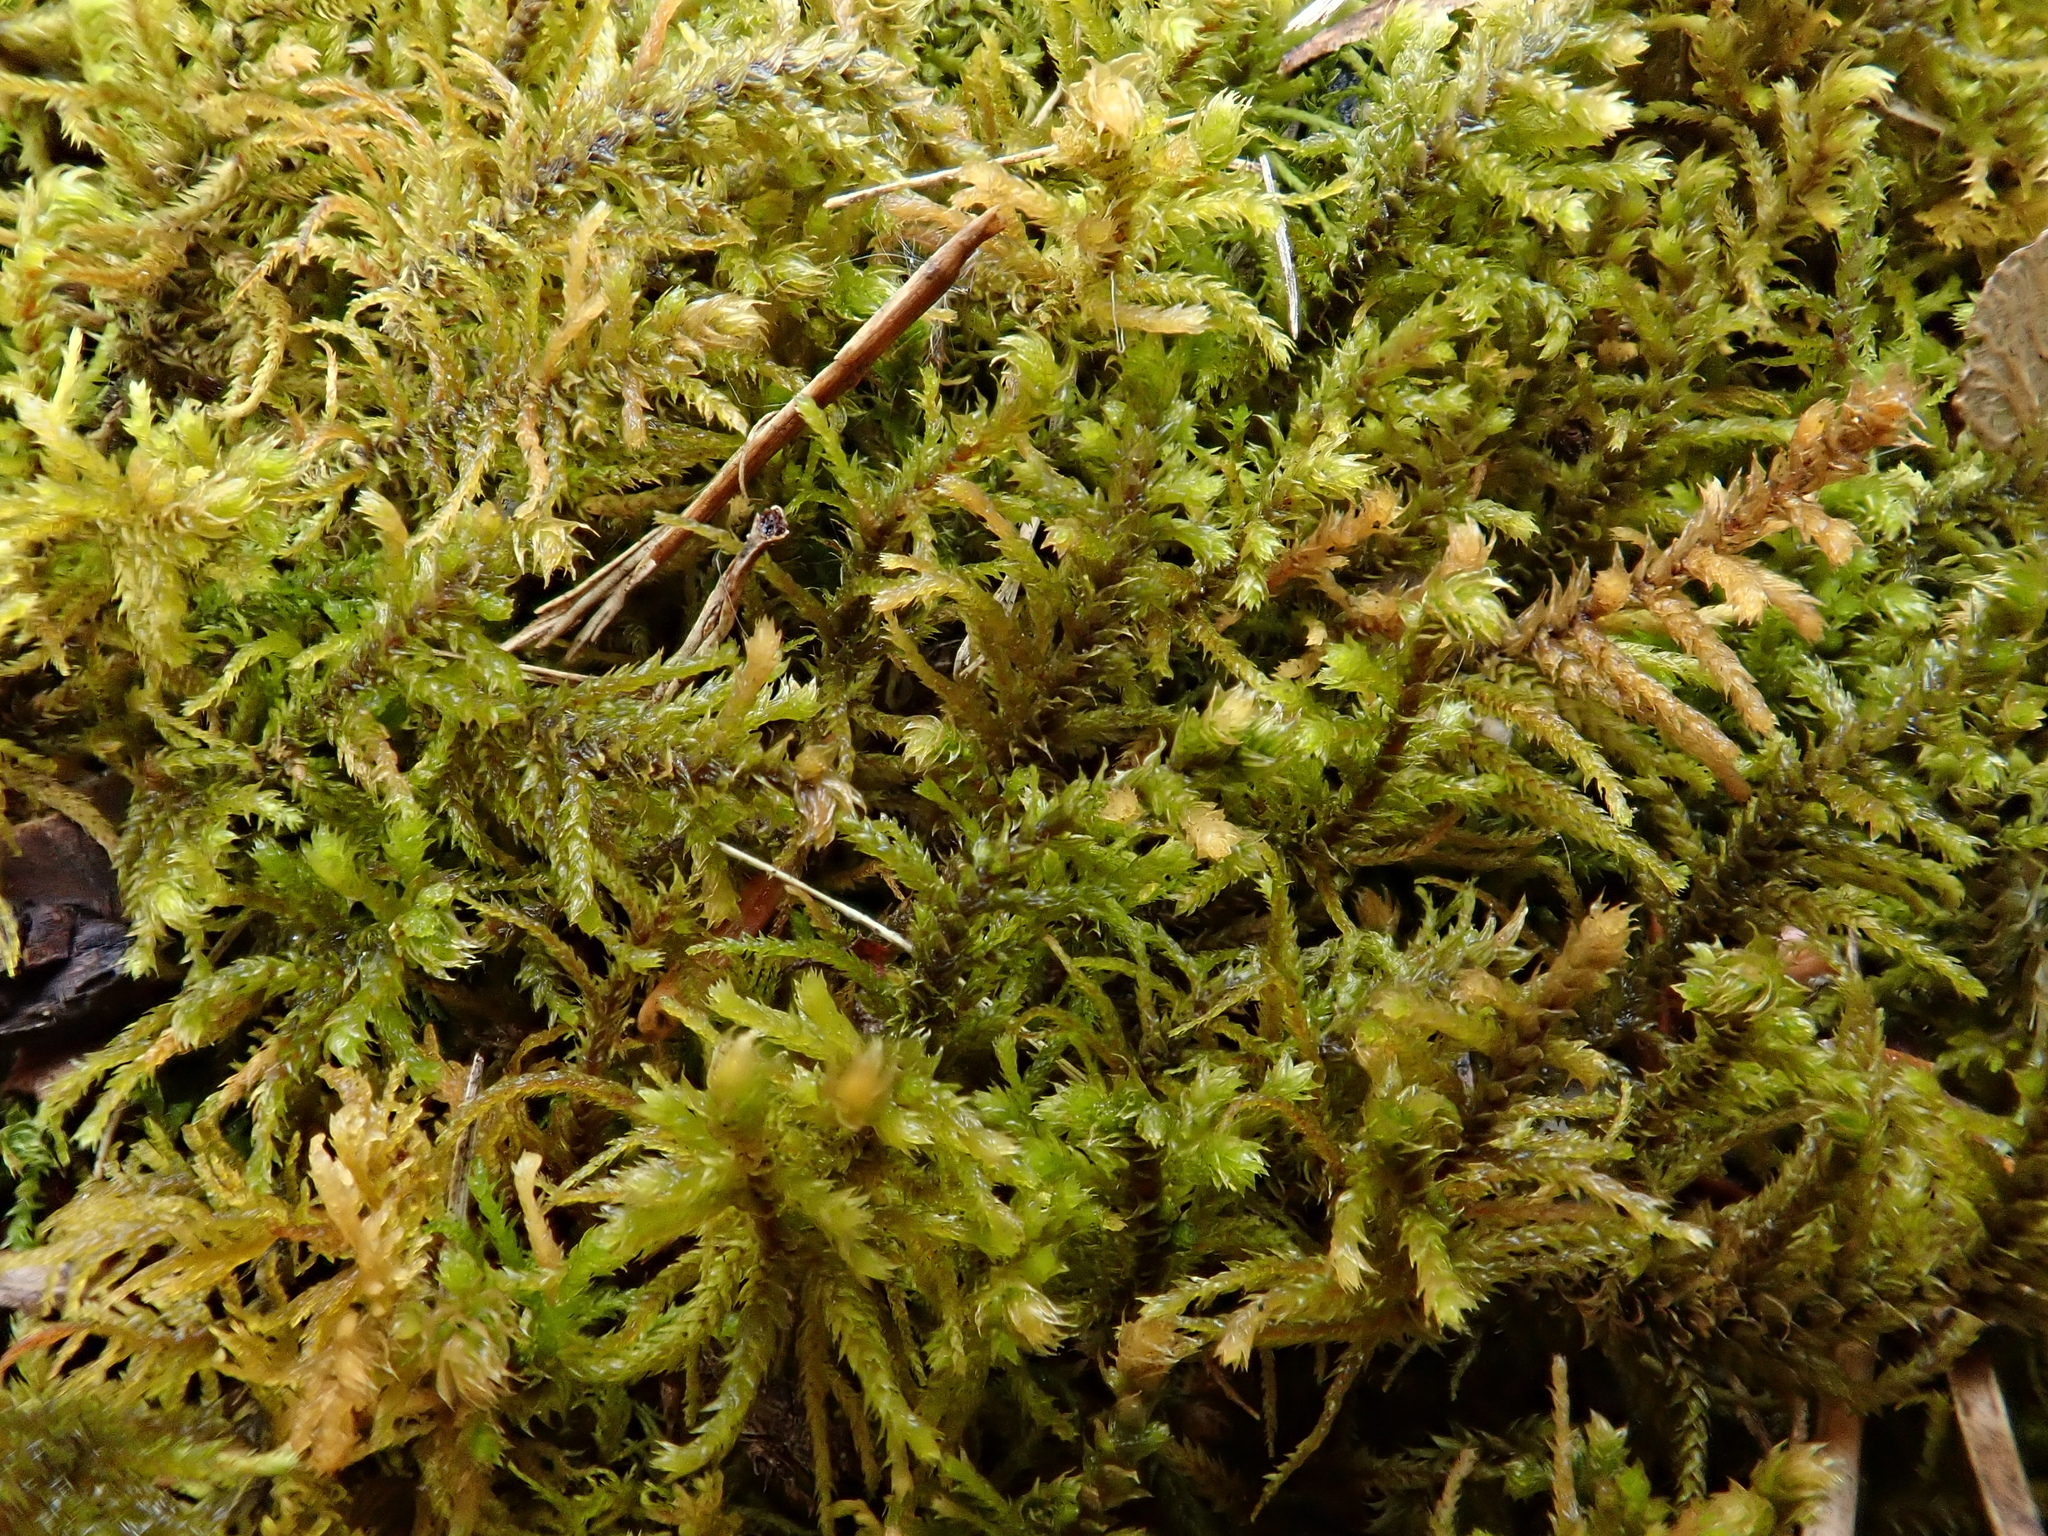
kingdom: Plantae
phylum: Bryophyta
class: Bryopsida
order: Hypnales
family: Thuidiaceae
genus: Abietinella
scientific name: Abietinella abietina
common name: Wiry fern moss
